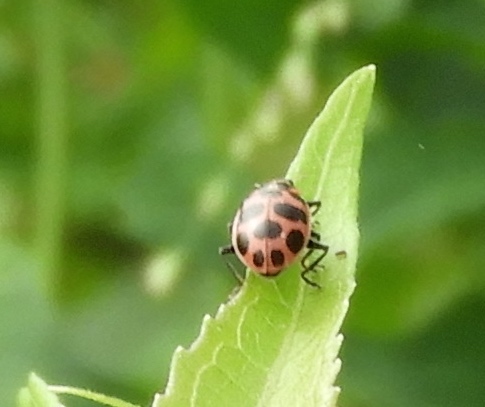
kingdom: Animalia
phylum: Arthropoda
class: Insecta
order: Coleoptera
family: Coccinellidae
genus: Coleomegilla
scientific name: Coleomegilla maculata
